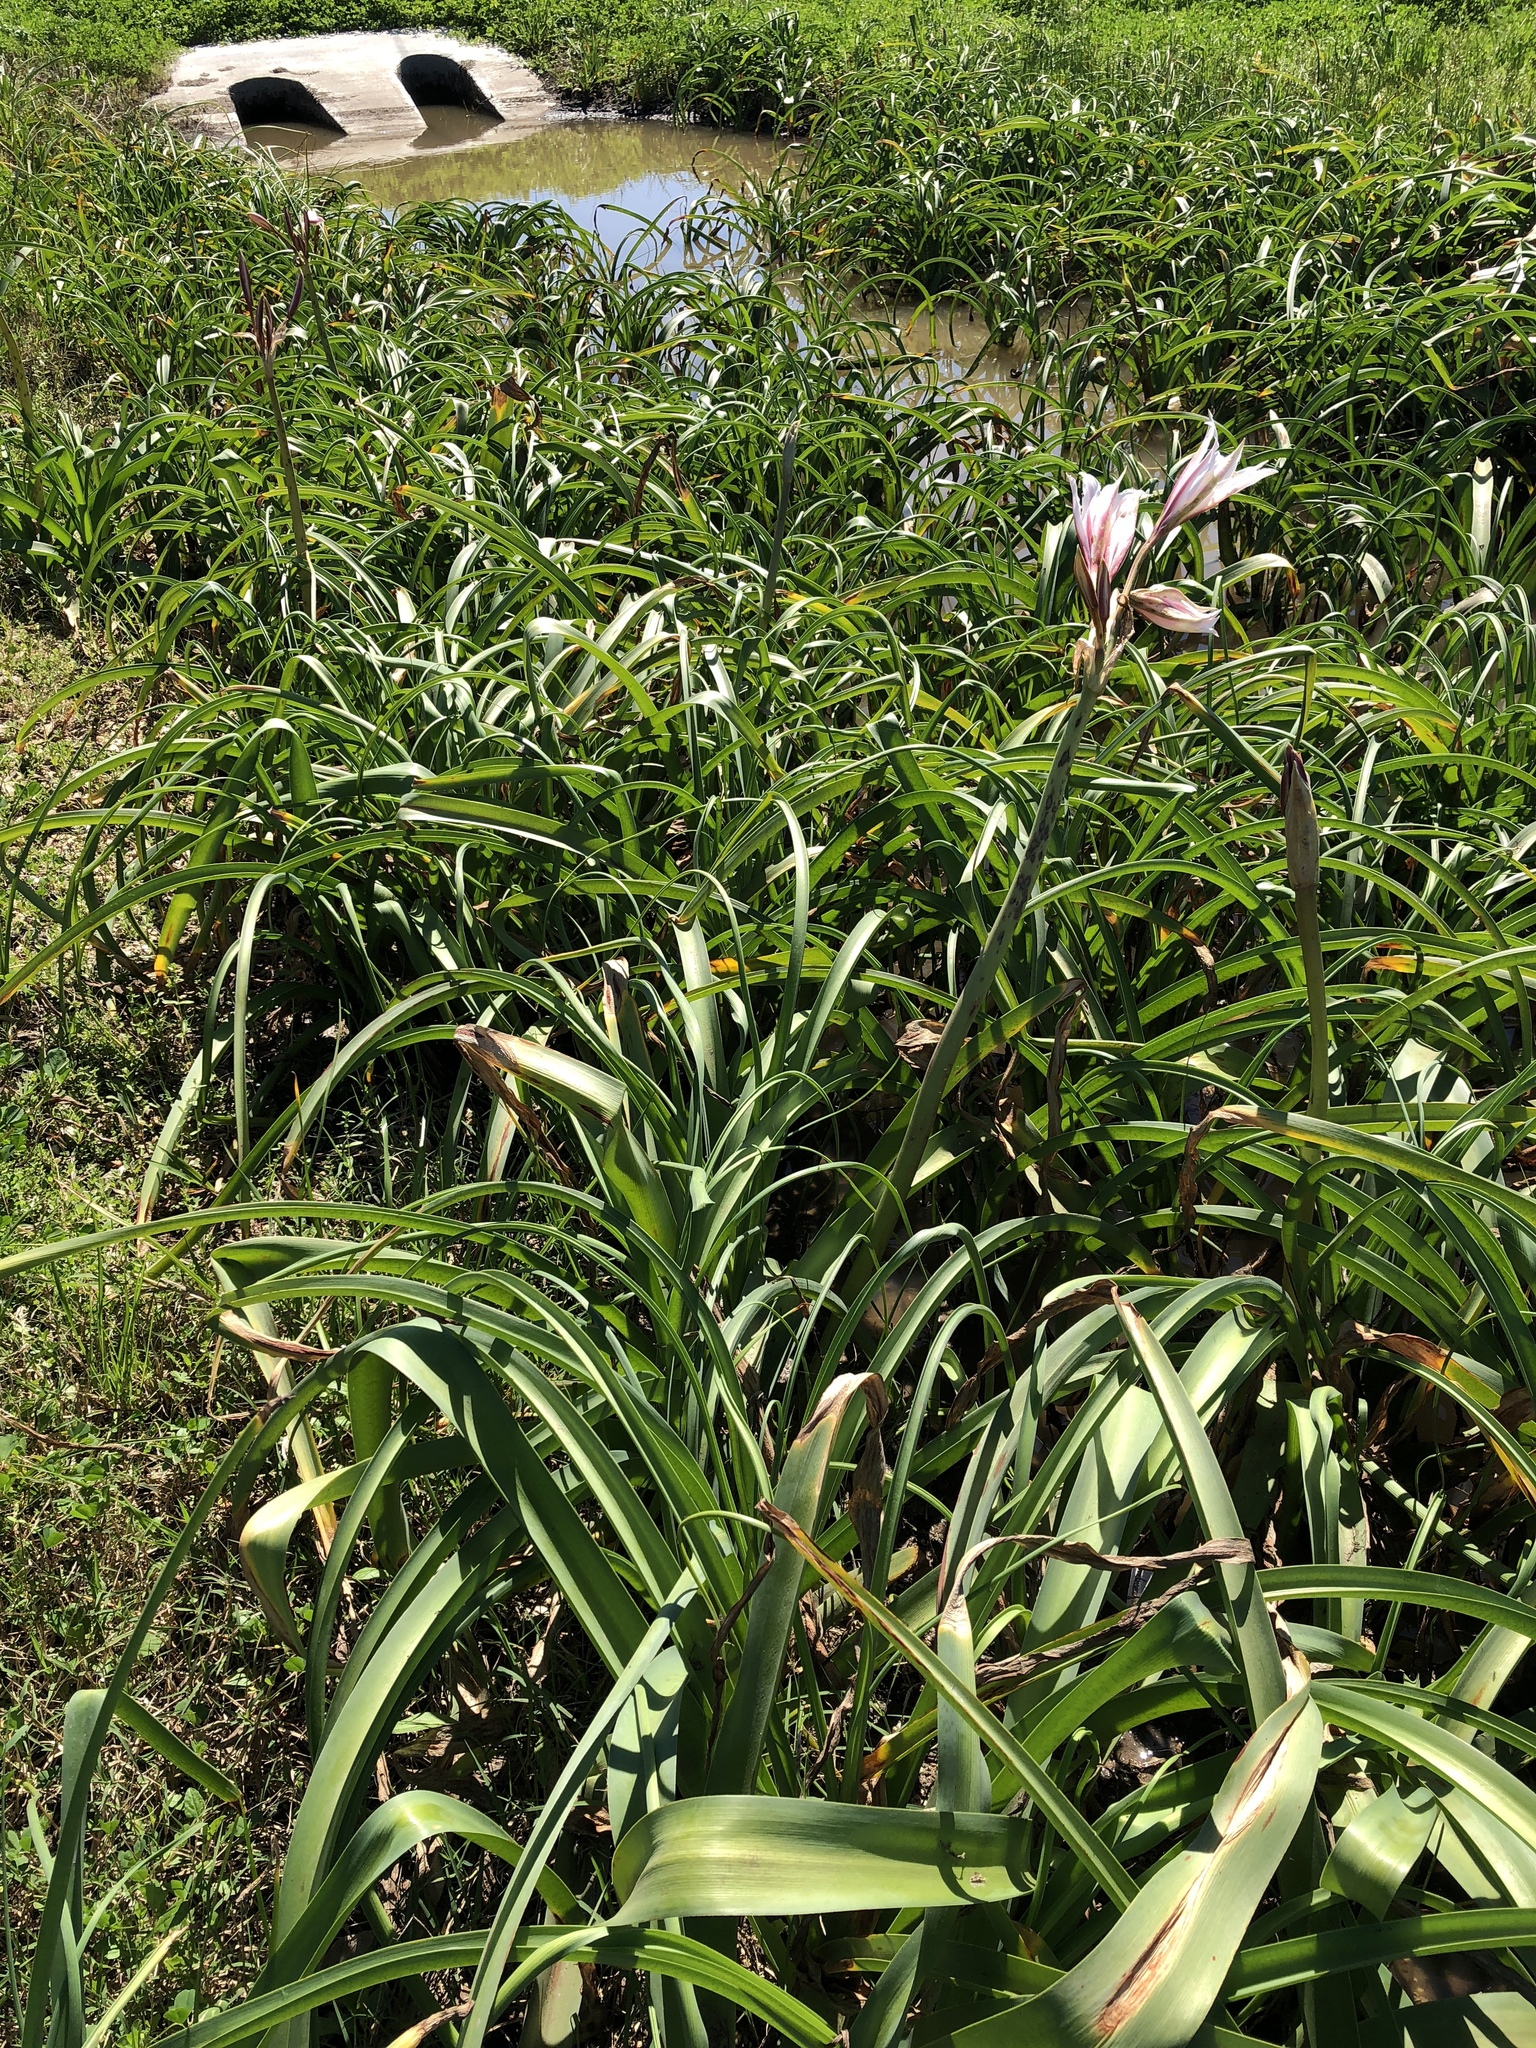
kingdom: Plantae
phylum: Tracheophyta
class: Liliopsida
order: Asparagales
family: Amaryllidaceae
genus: Crinum
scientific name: Crinum bulbispermum
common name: Hardy swamplily
